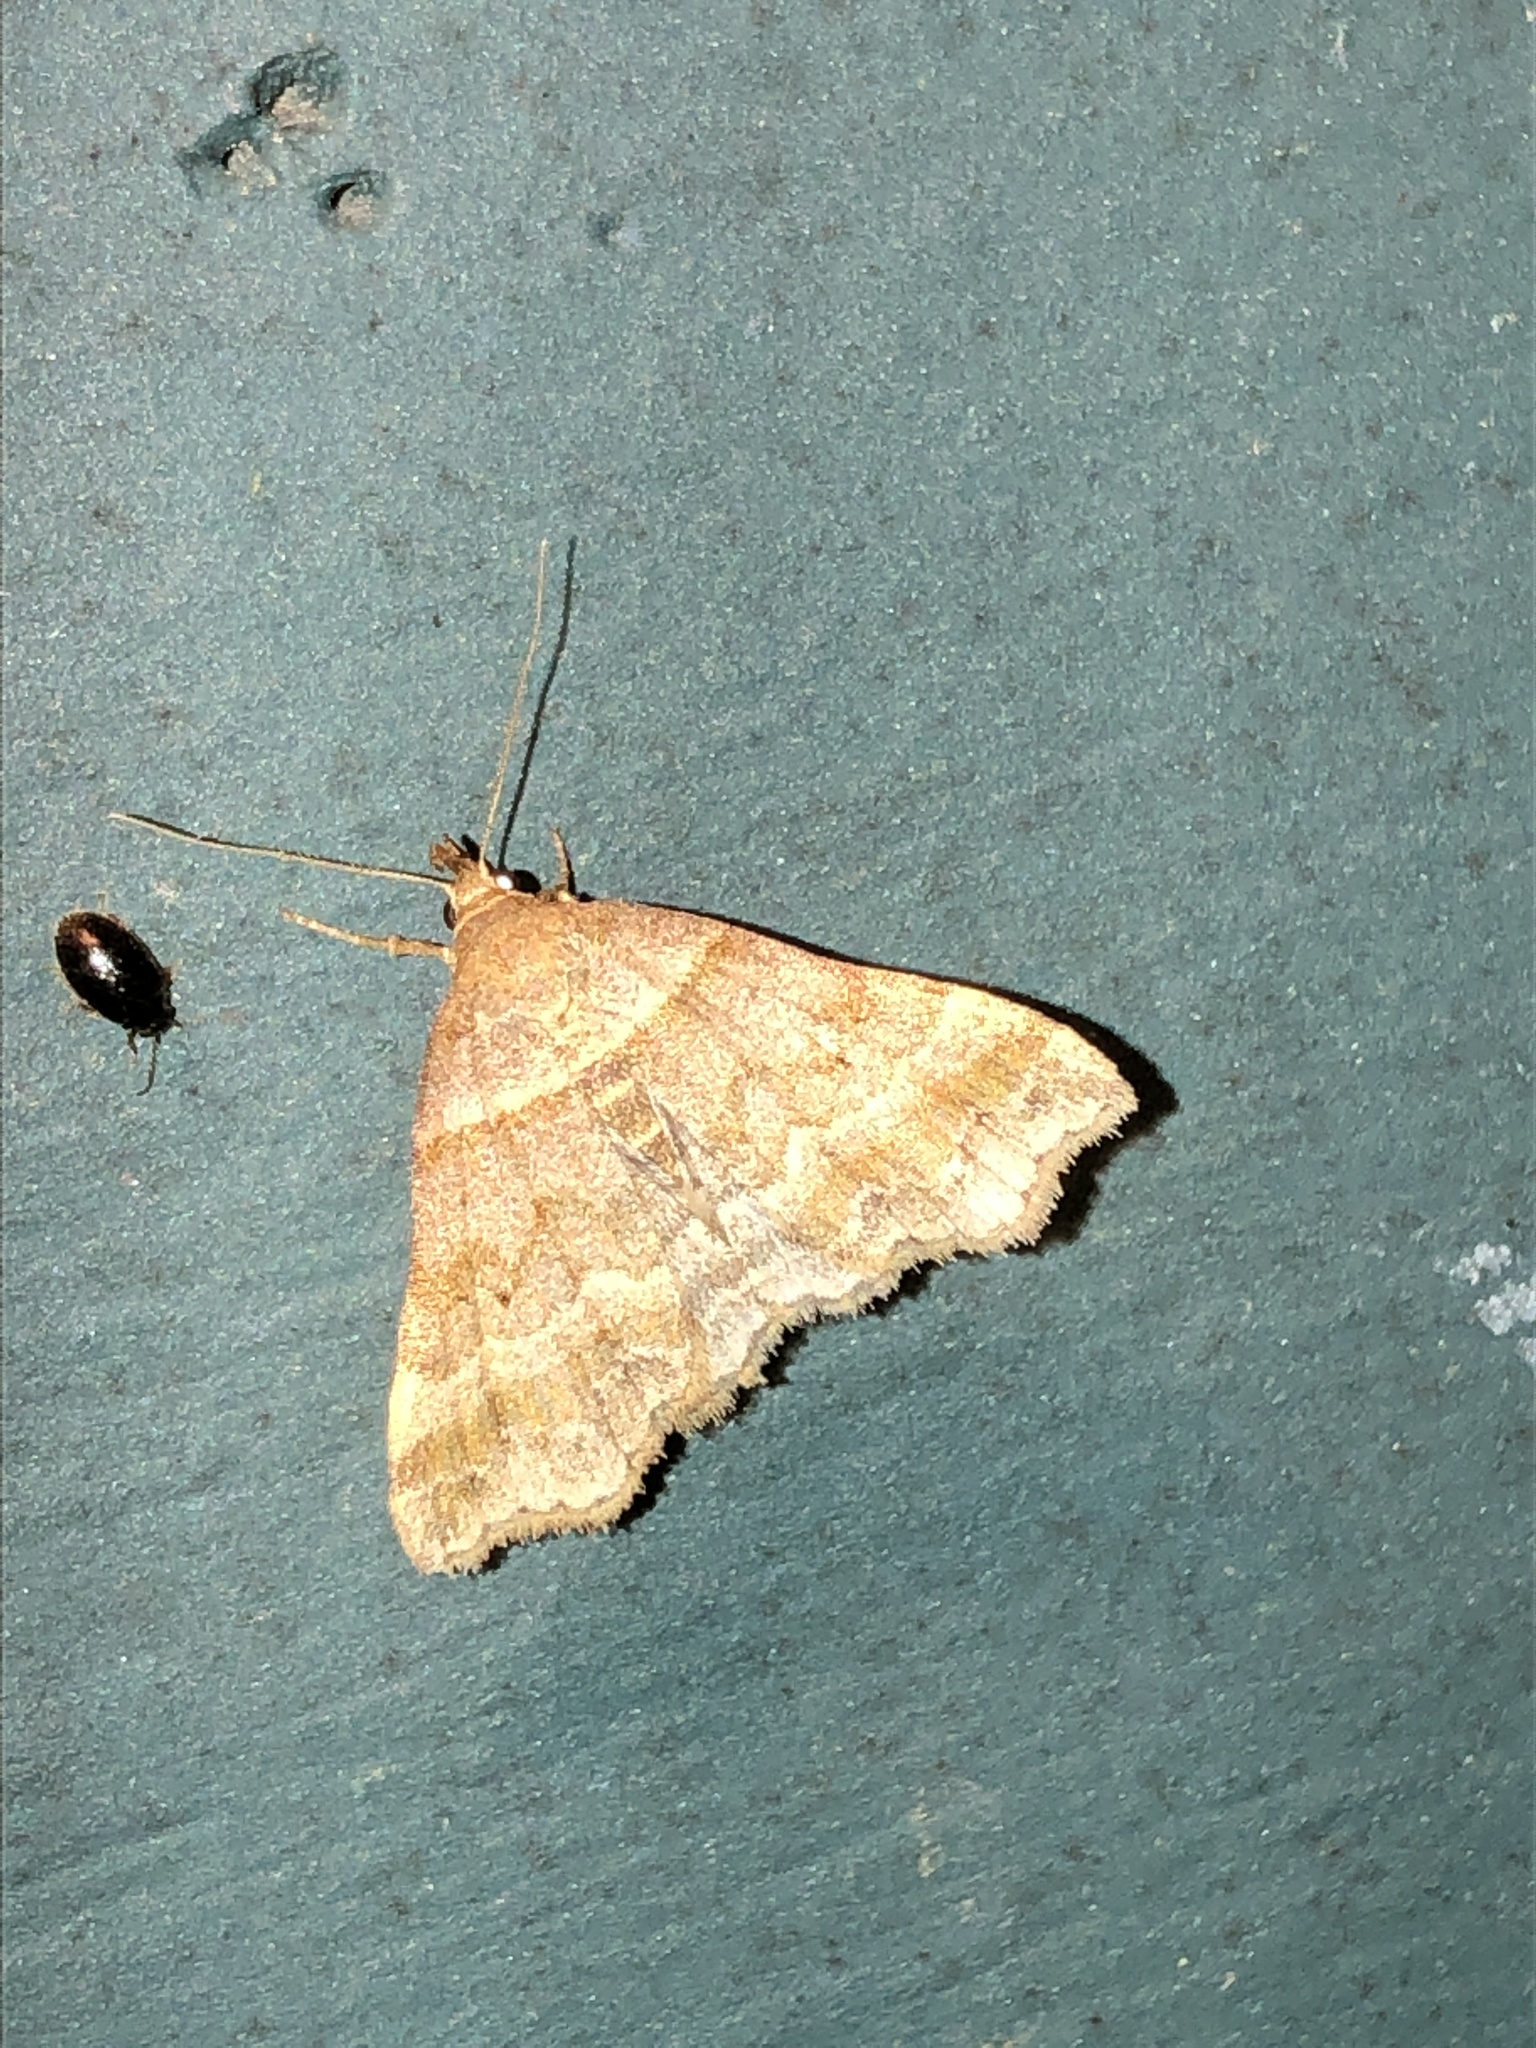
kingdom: Animalia
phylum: Arthropoda
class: Insecta
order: Lepidoptera
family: Erebidae
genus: Phaeolita
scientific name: Phaeolita pyramusalis
